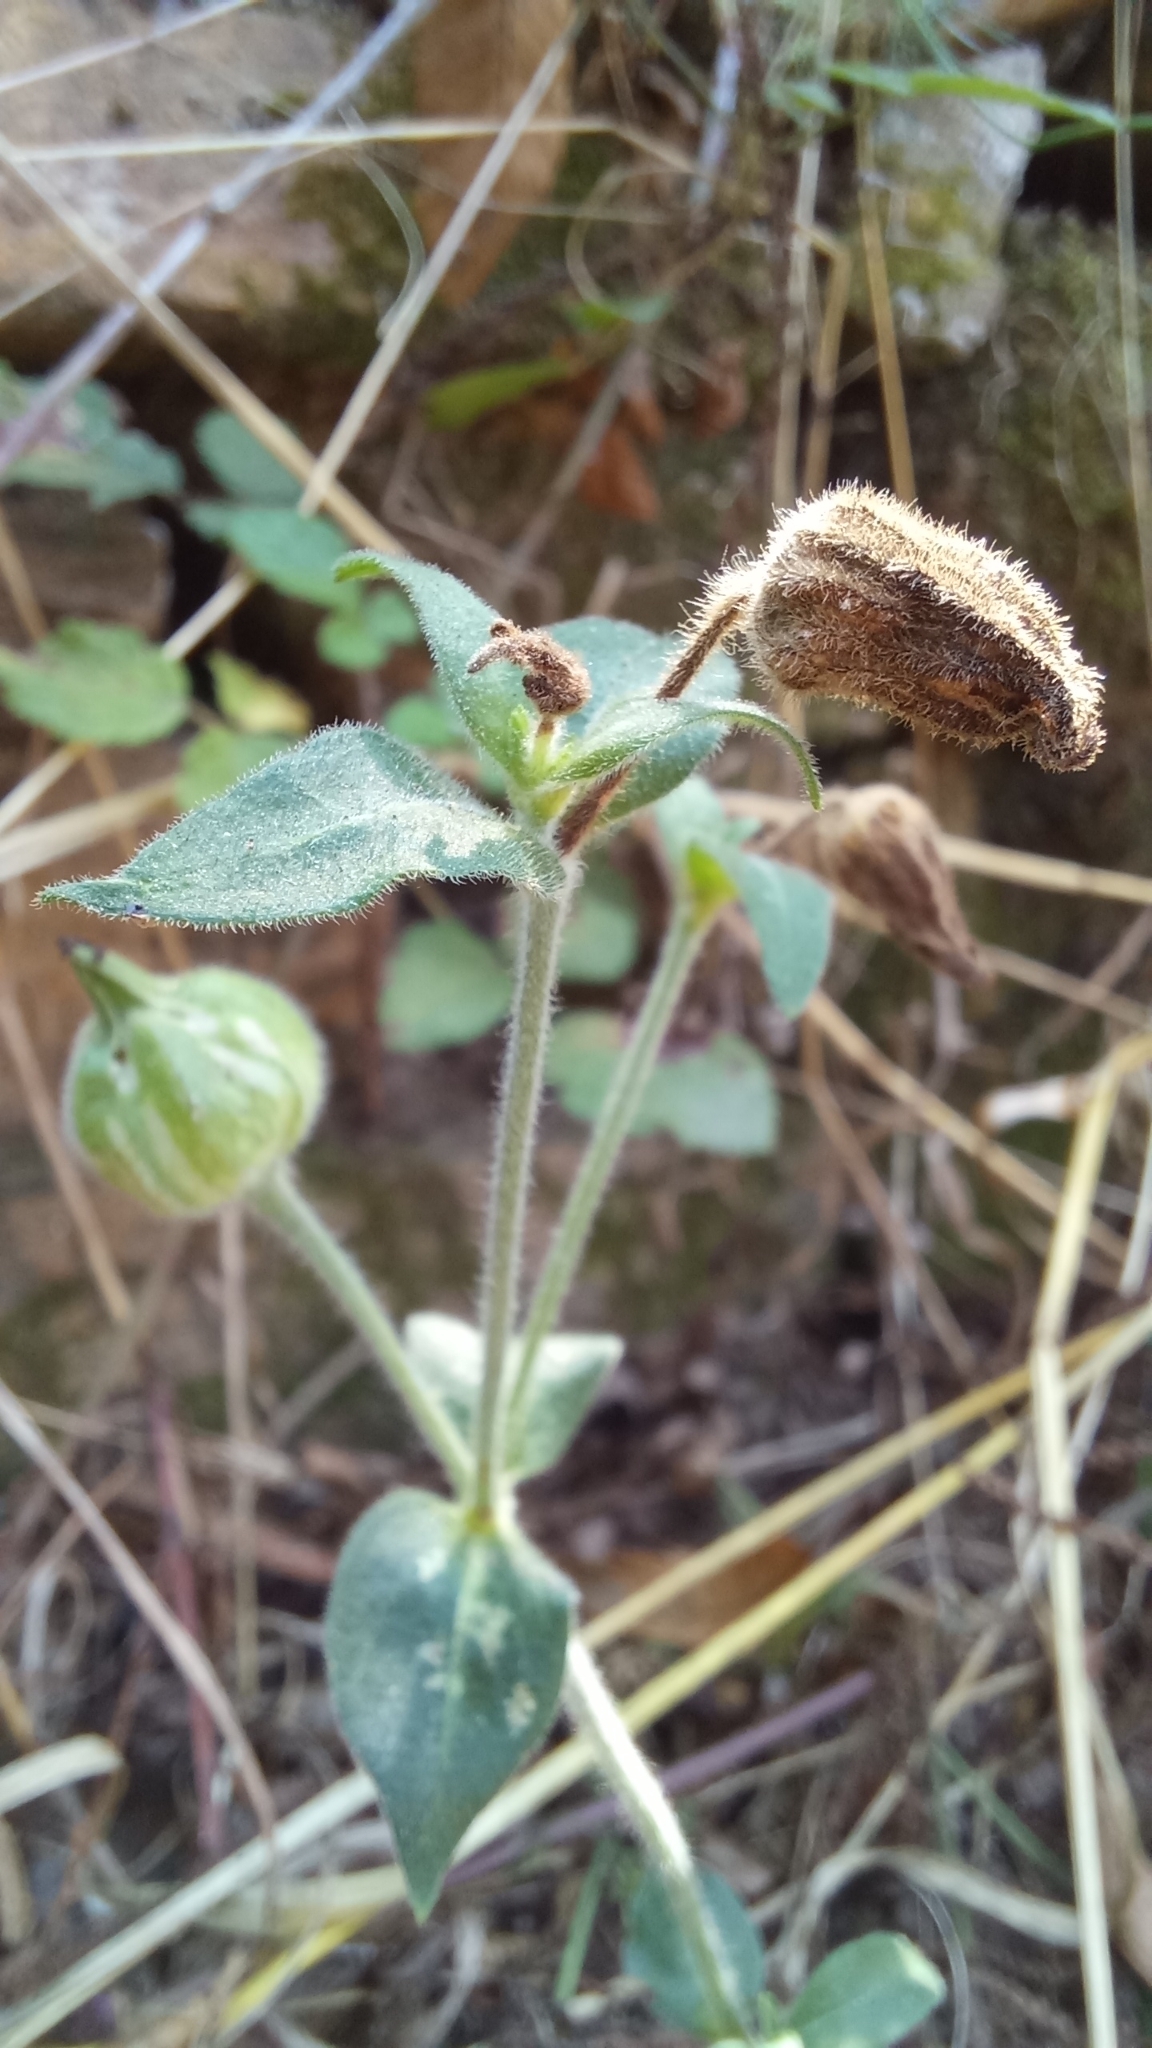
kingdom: Plantae
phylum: Tracheophyta
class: Magnoliopsida
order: Caryophyllales
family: Caryophyllaceae
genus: Silene
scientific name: Silene latifolia
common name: White campion
